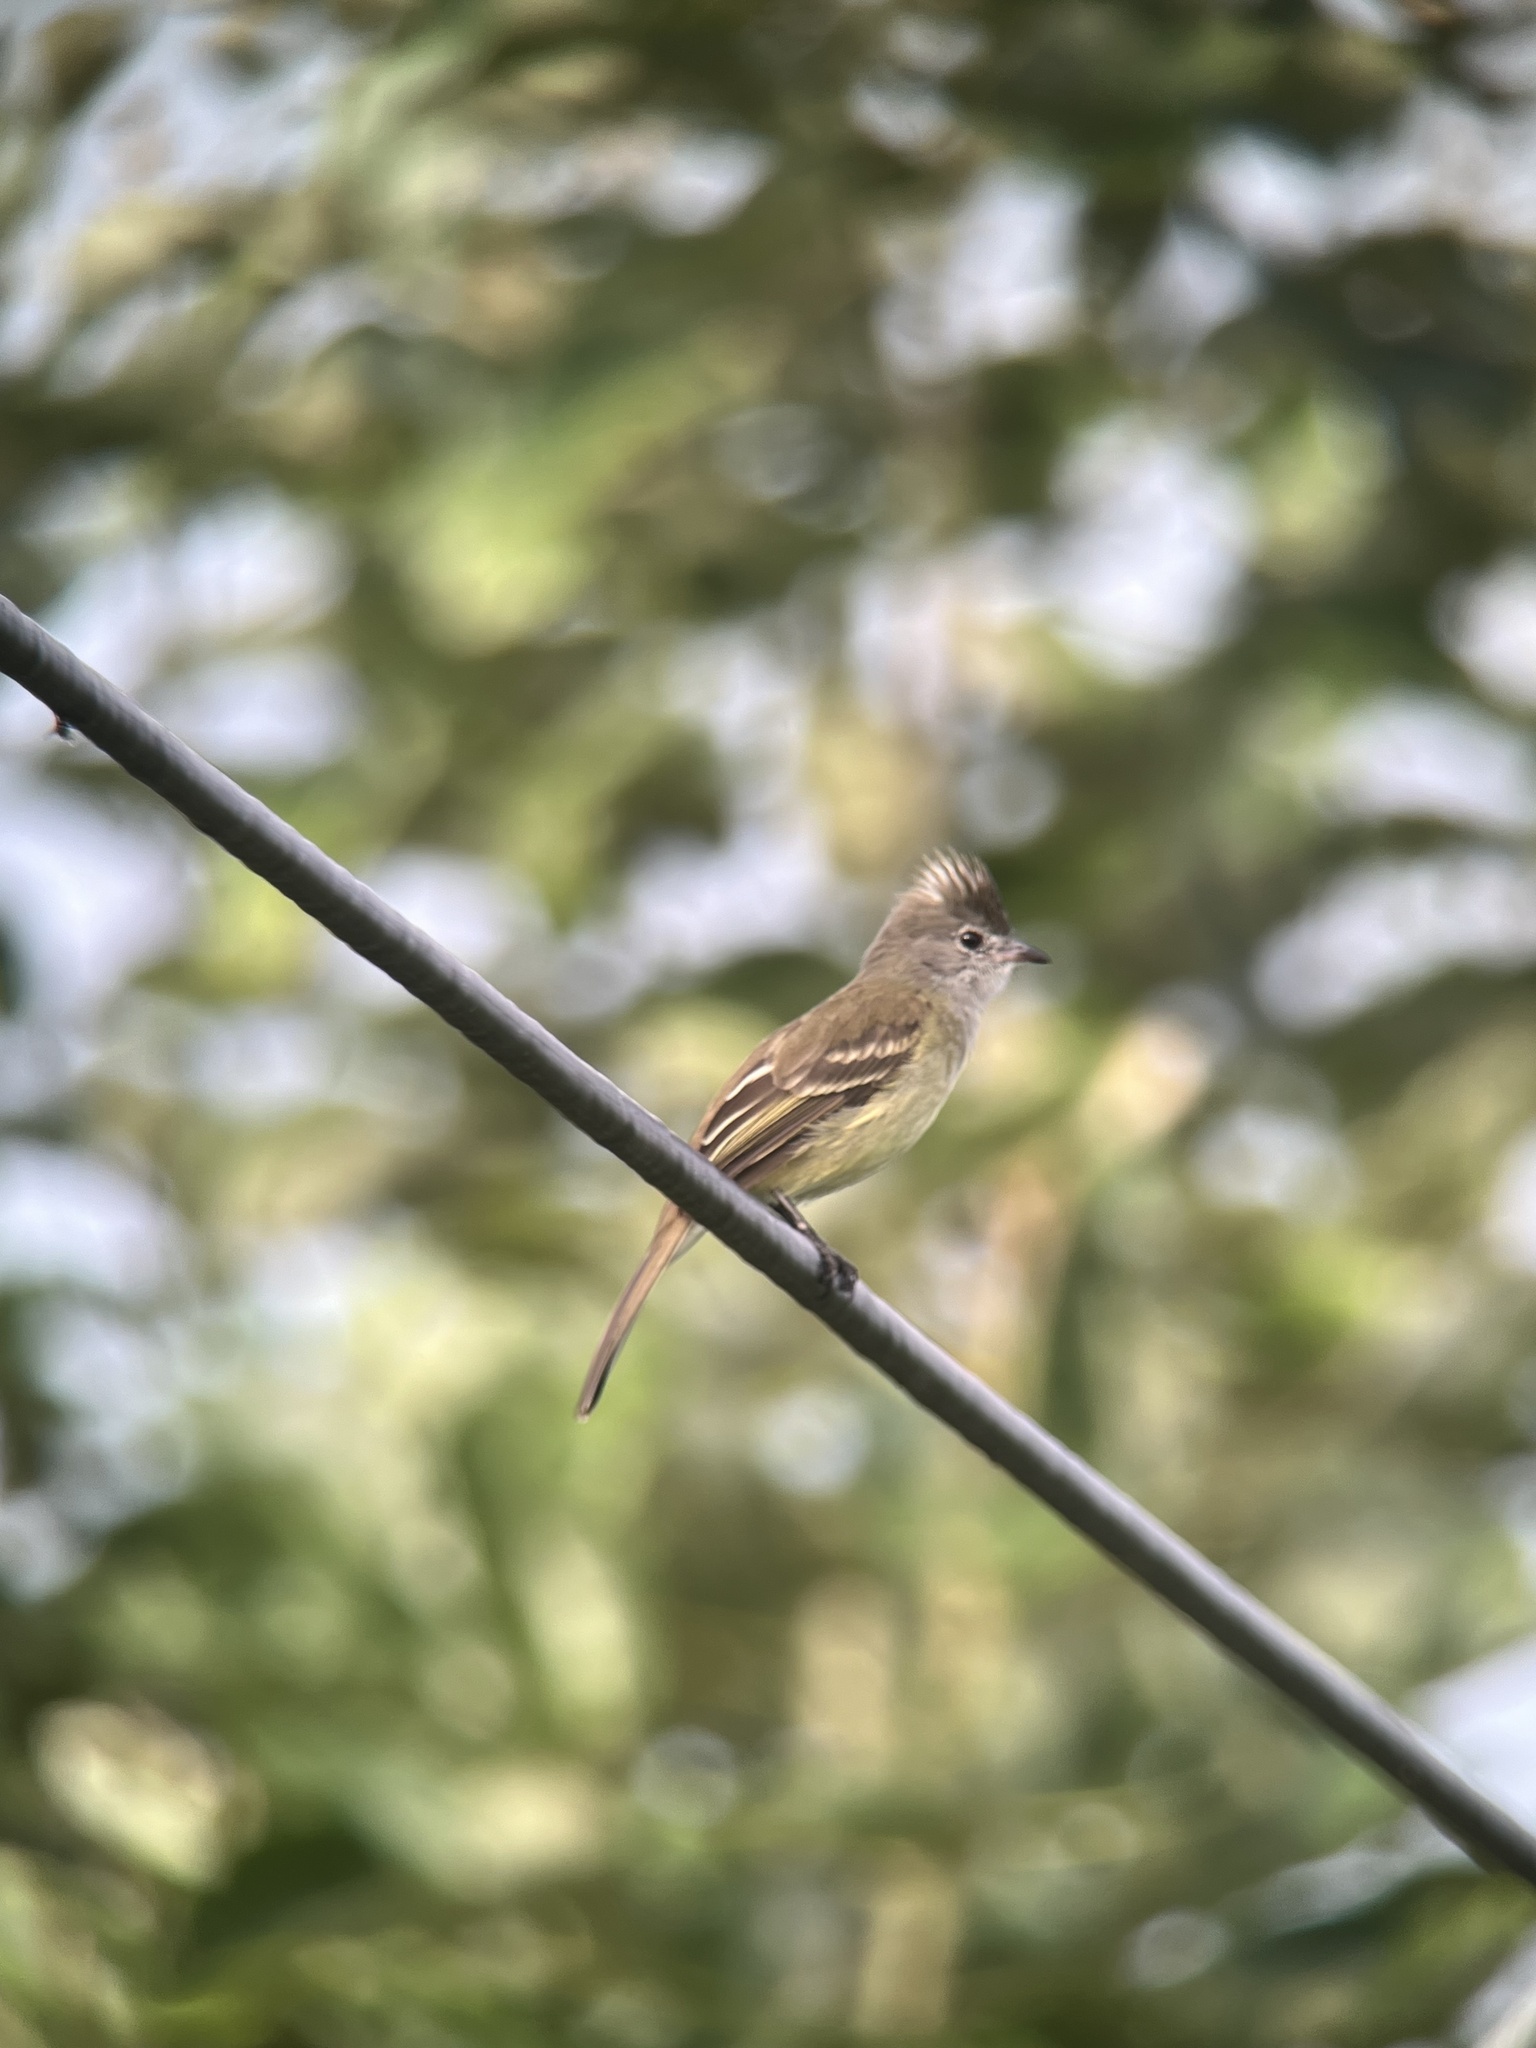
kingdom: Animalia
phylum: Chordata
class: Aves
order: Passeriformes
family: Tyrannidae
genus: Elaenia
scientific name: Elaenia flavogaster
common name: Yellow-bellied elaenia
